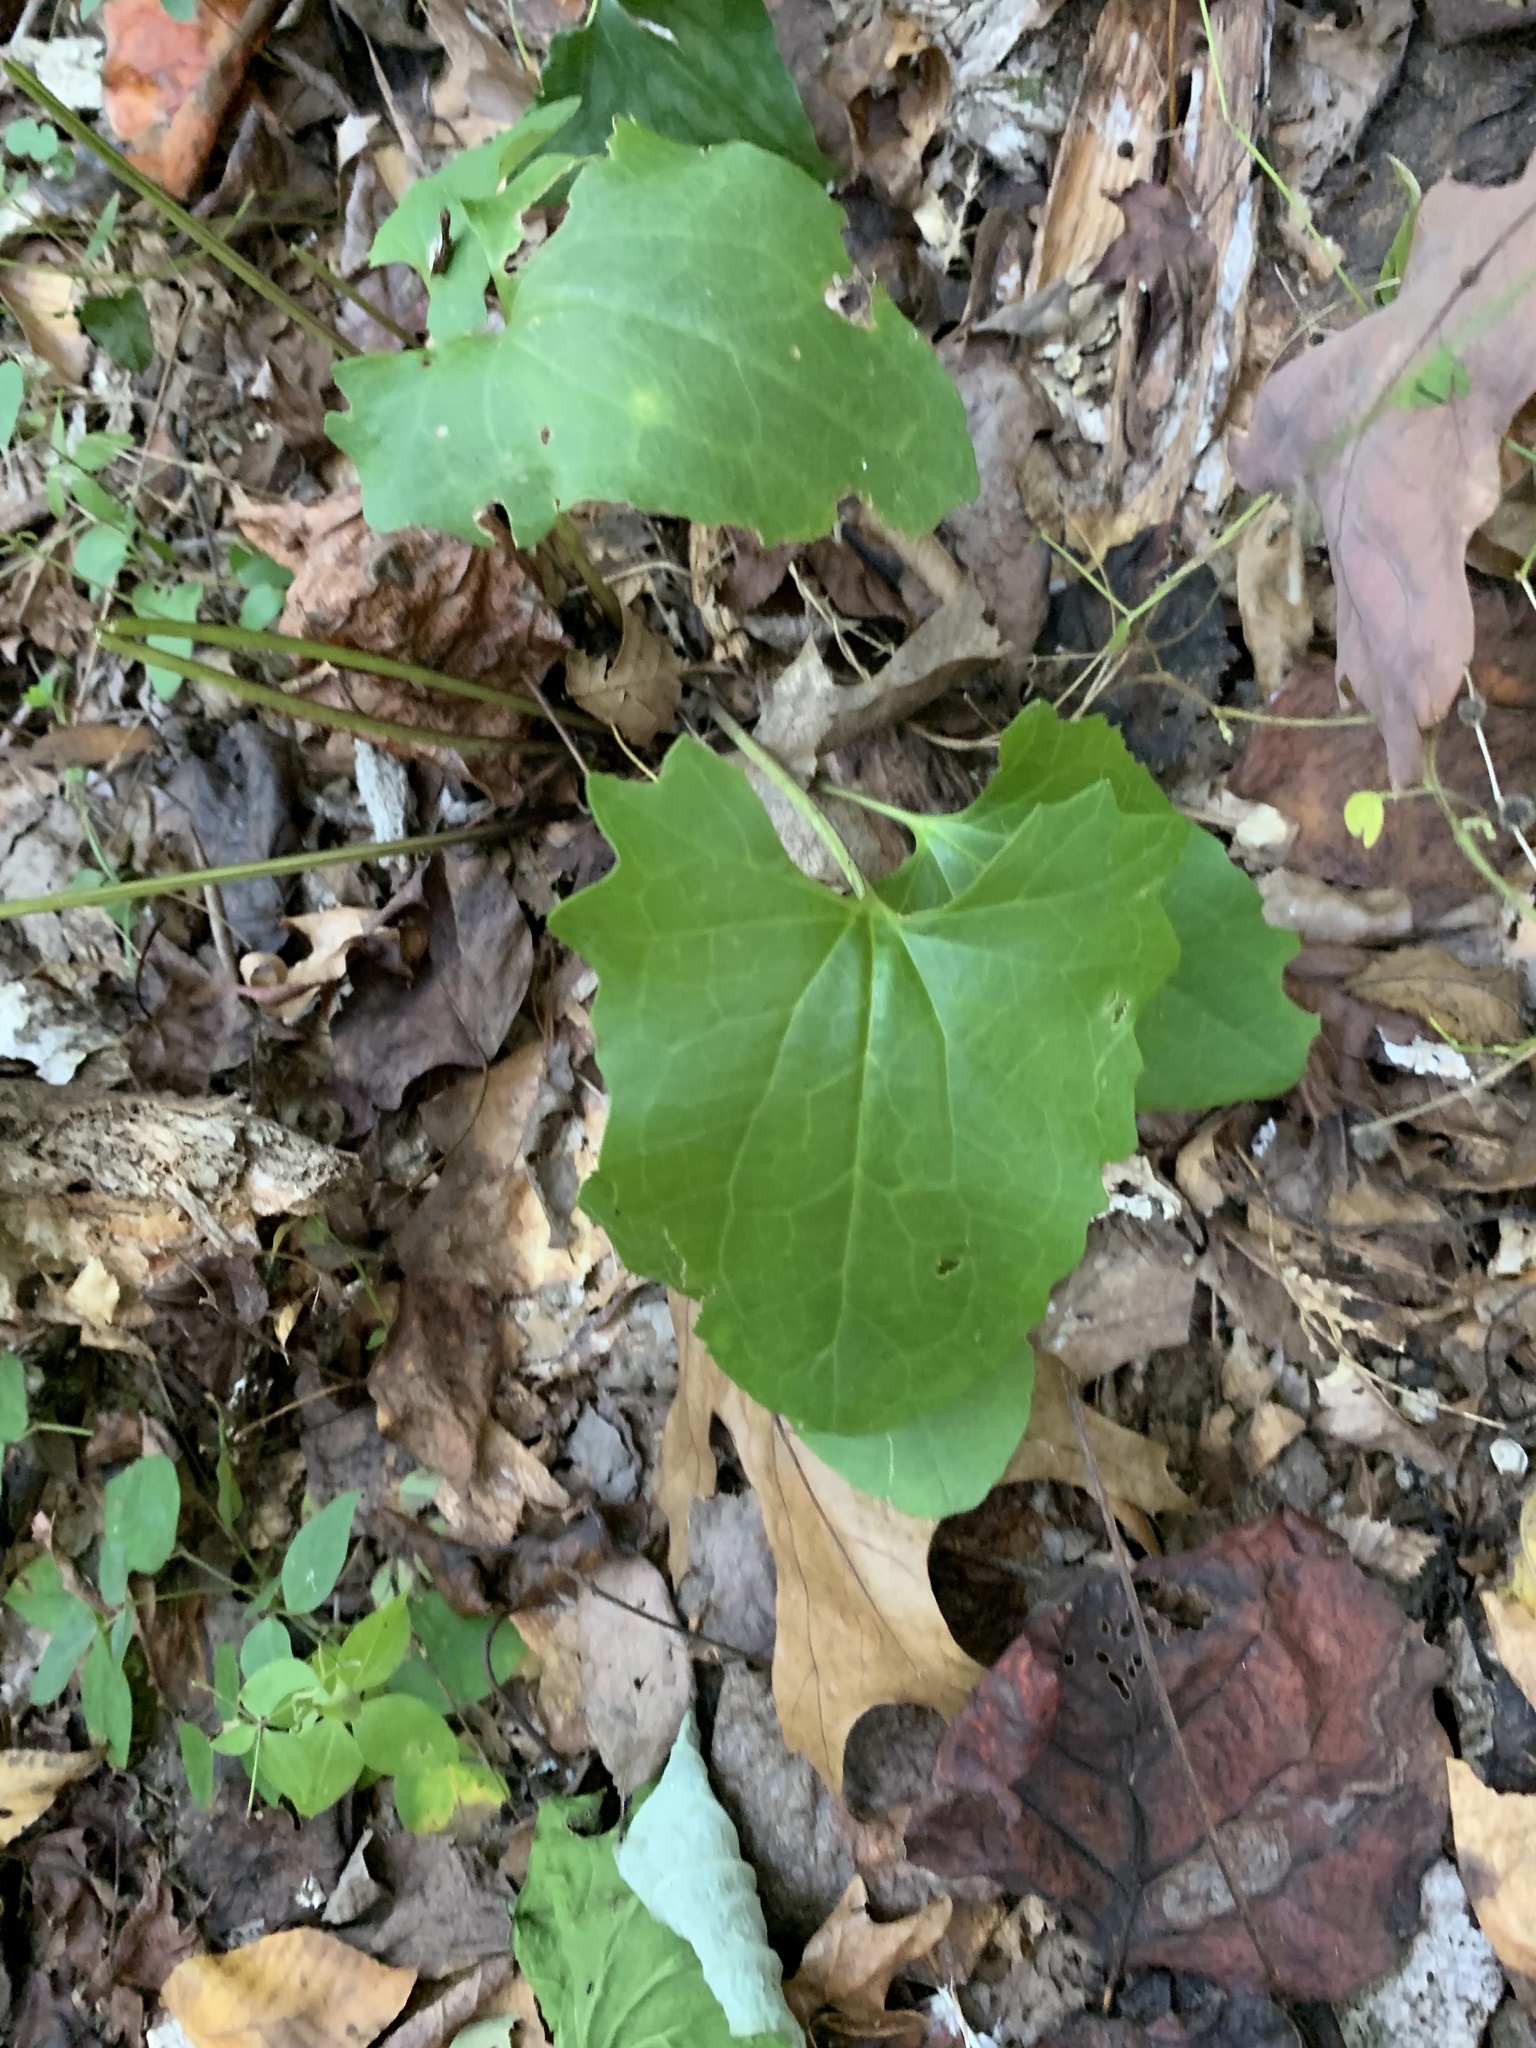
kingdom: Plantae
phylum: Tracheophyta
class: Magnoliopsida
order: Asterales
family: Asteraceae
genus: Arnoglossum
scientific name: Arnoglossum atriplicifolium
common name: Pale indian-plantain
